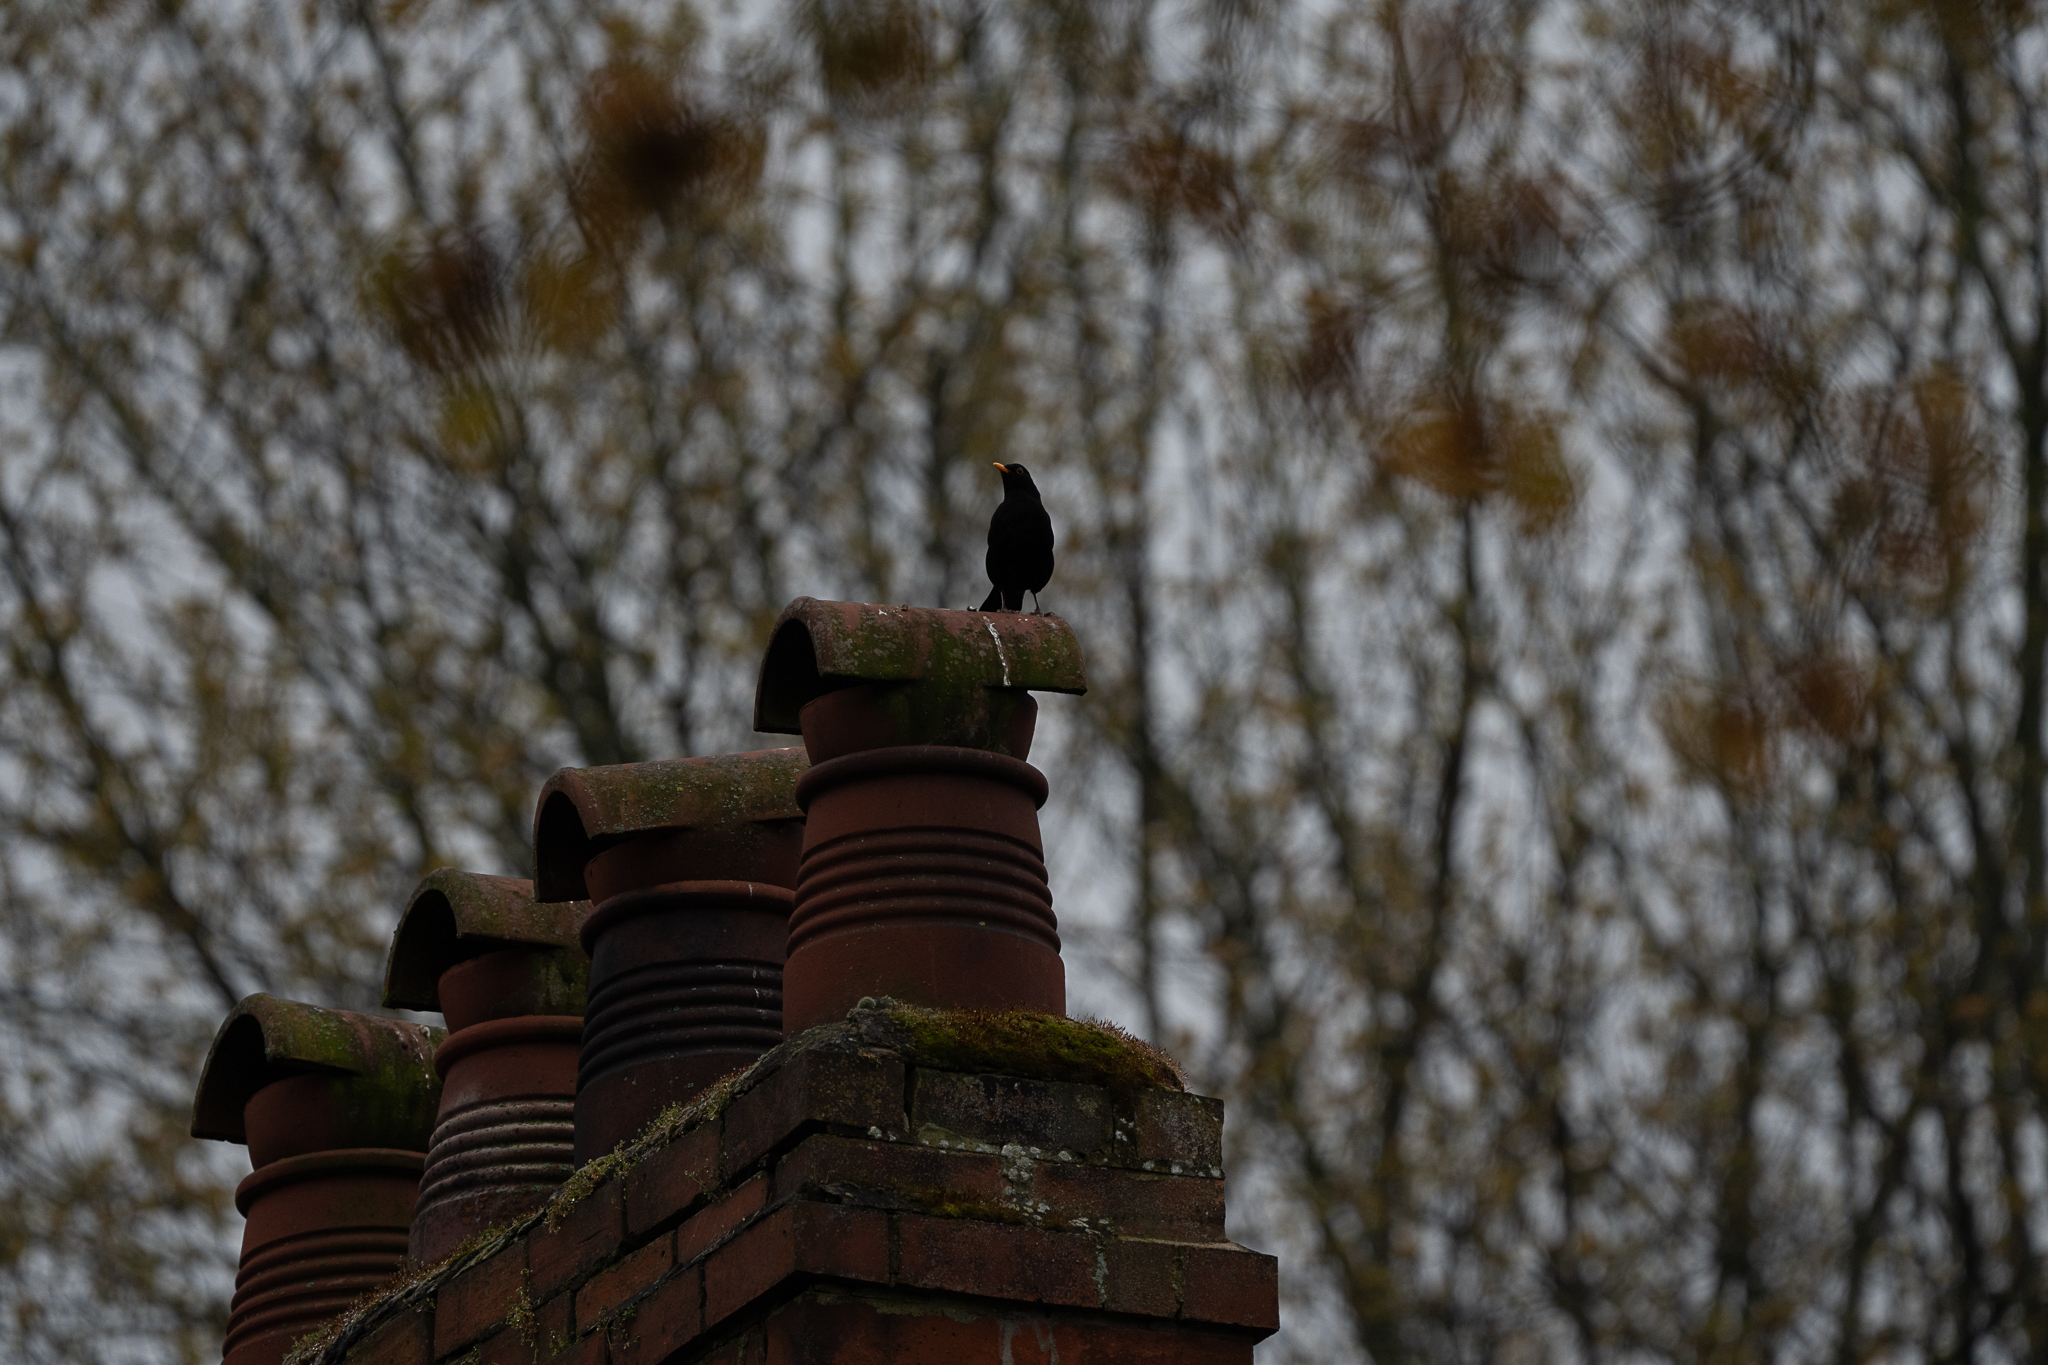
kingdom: Animalia
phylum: Chordata
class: Aves
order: Passeriformes
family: Turdidae
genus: Turdus
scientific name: Turdus merula
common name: Common blackbird
